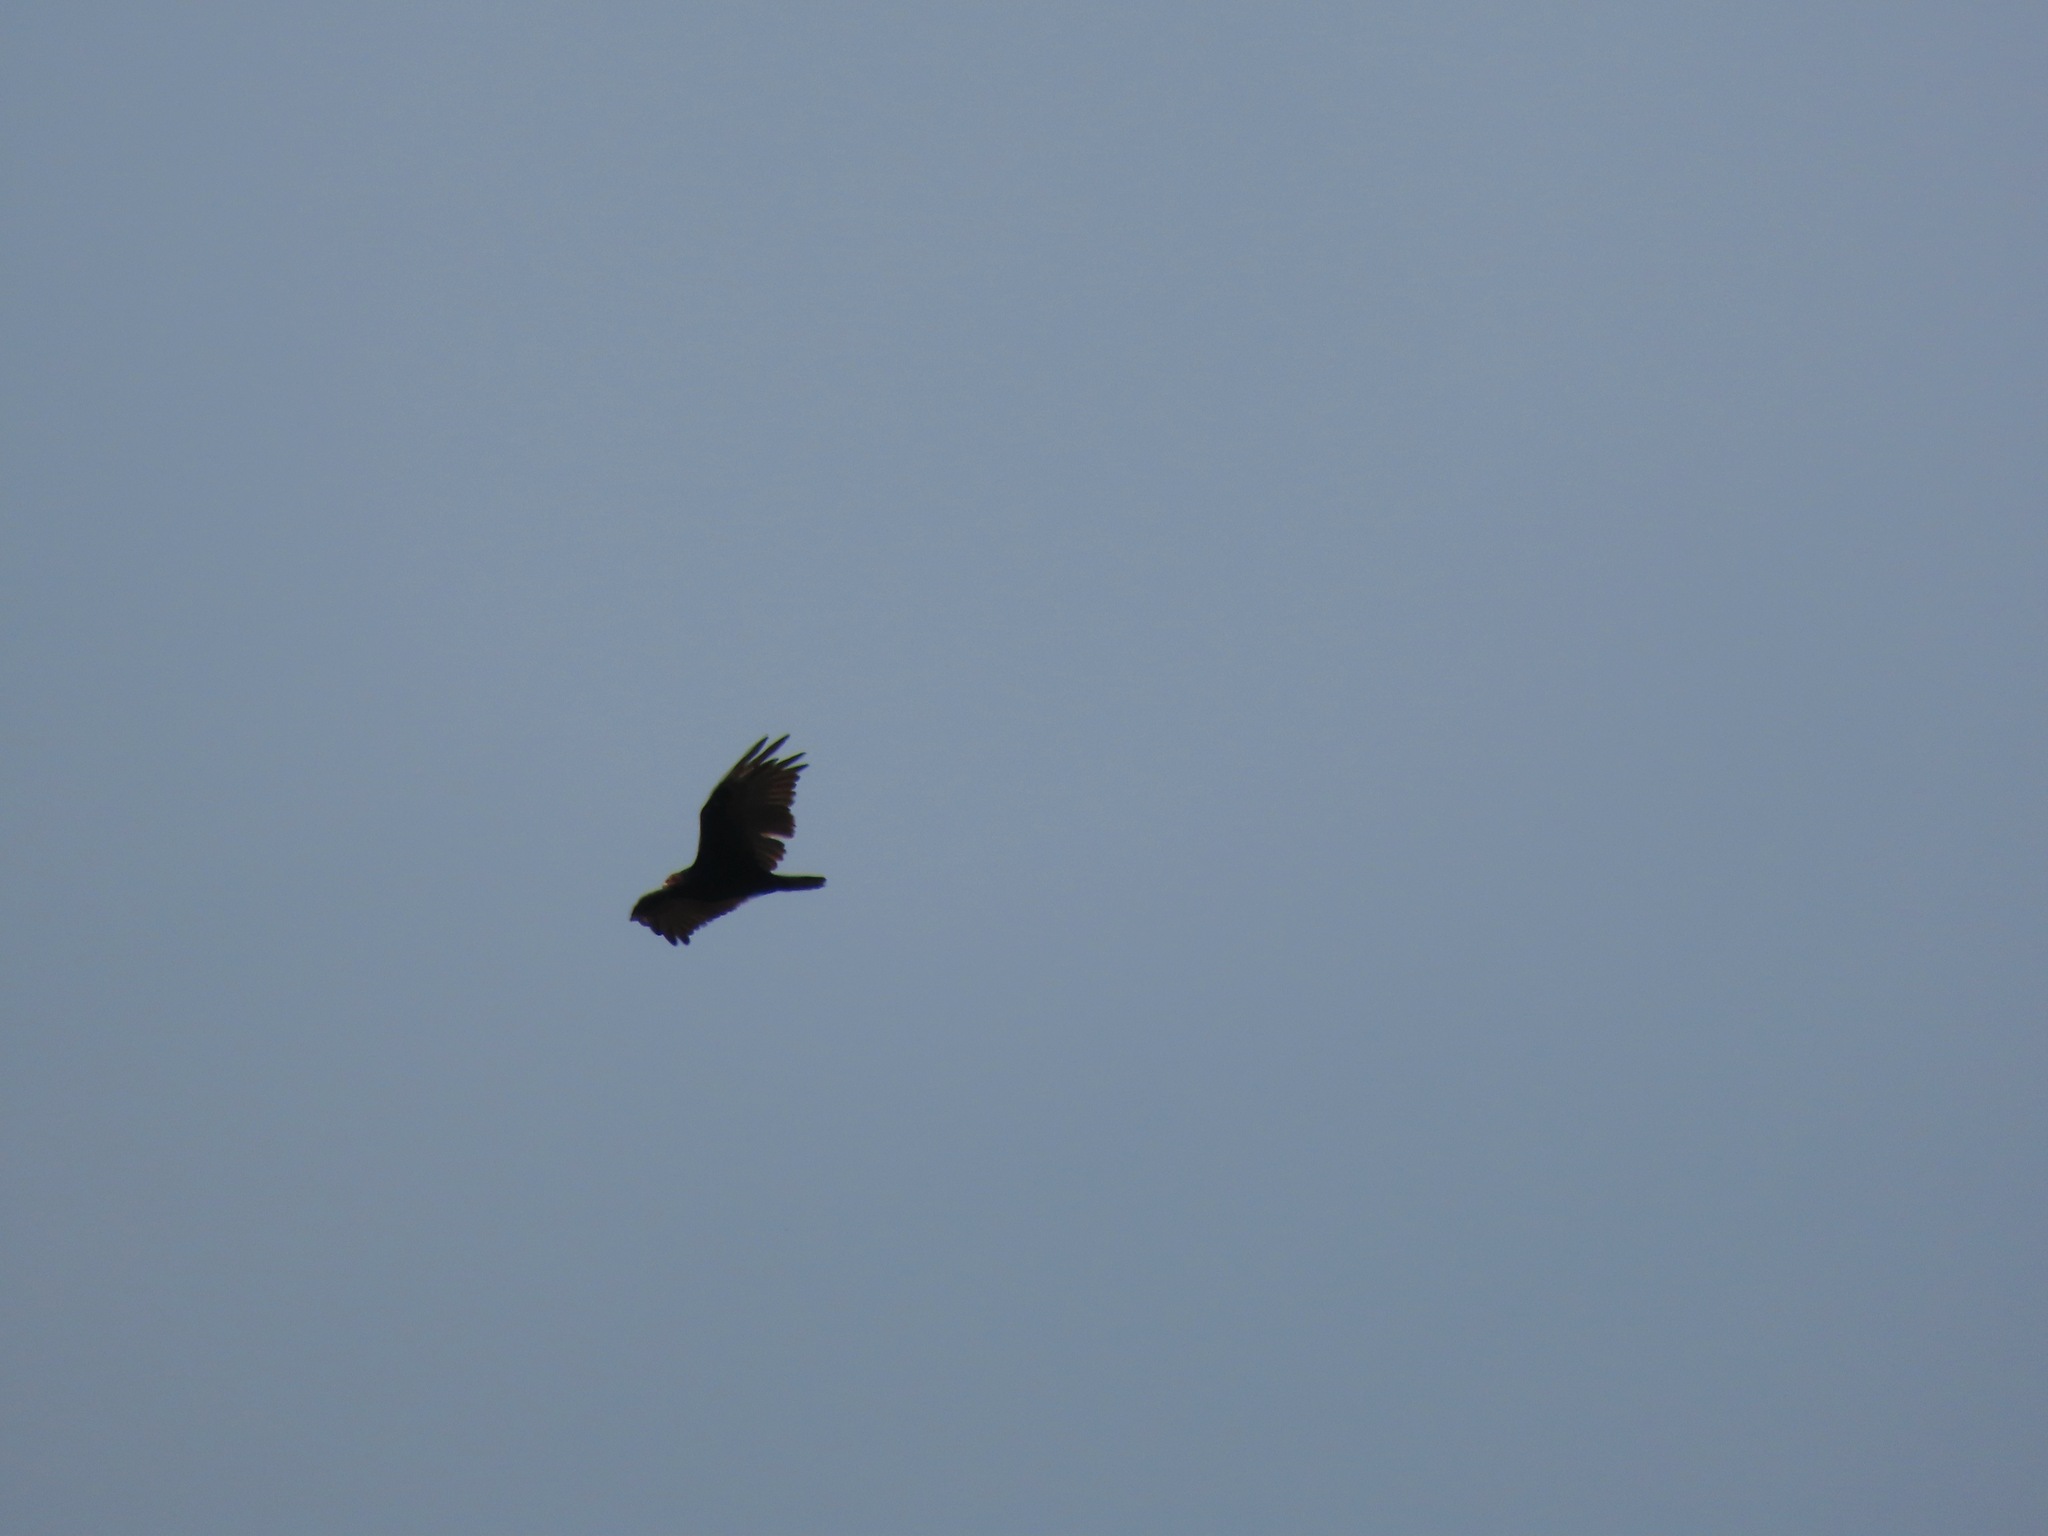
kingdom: Animalia
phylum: Chordata
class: Aves
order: Accipitriformes
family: Cathartidae
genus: Cathartes
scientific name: Cathartes aura
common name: Turkey vulture
